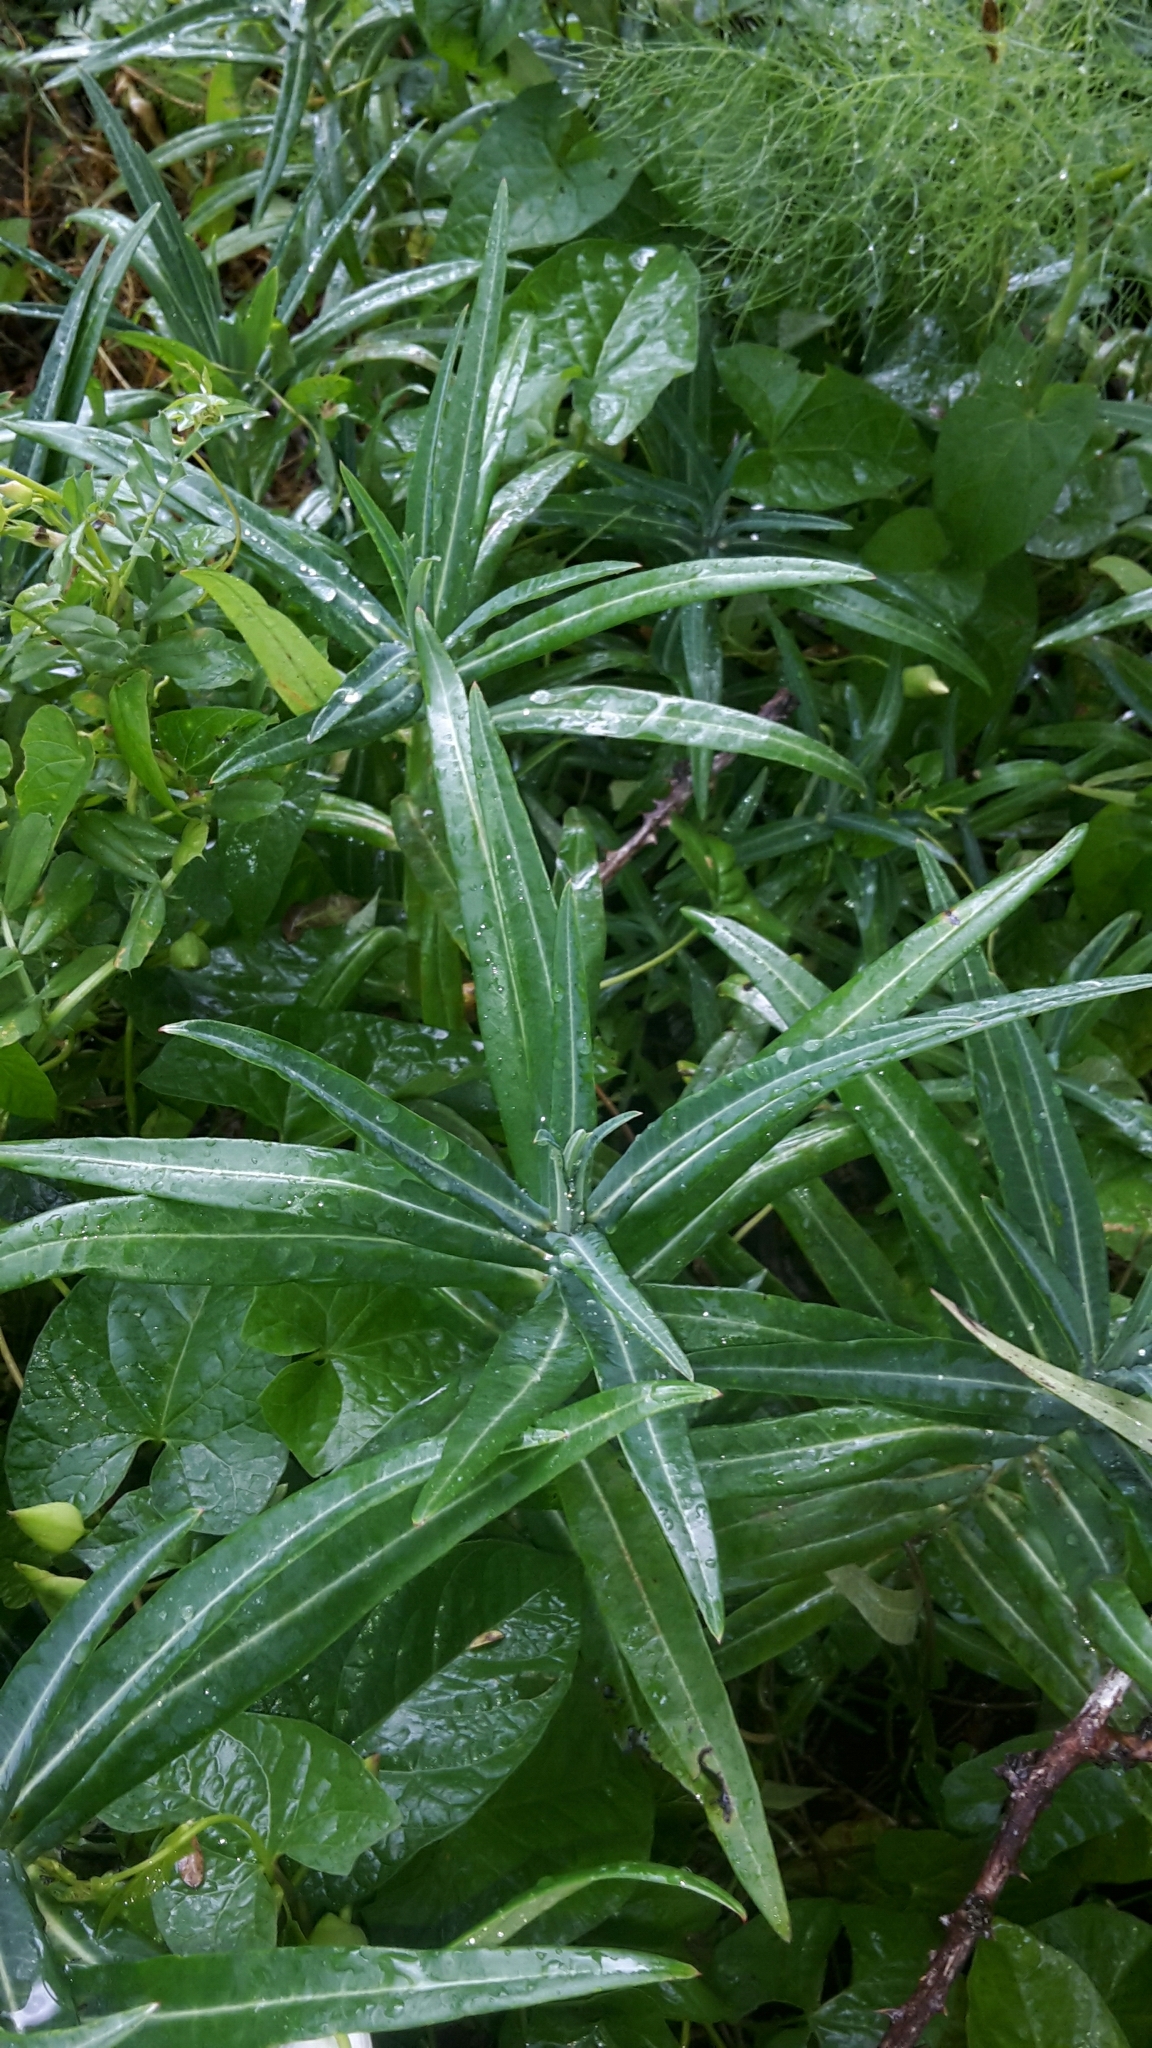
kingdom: Plantae
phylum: Tracheophyta
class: Magnoliopsida
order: Malpighiales
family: Euphorbiaceae
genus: Euphorbia
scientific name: Euphorbia lathyris
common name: Caper spurge
